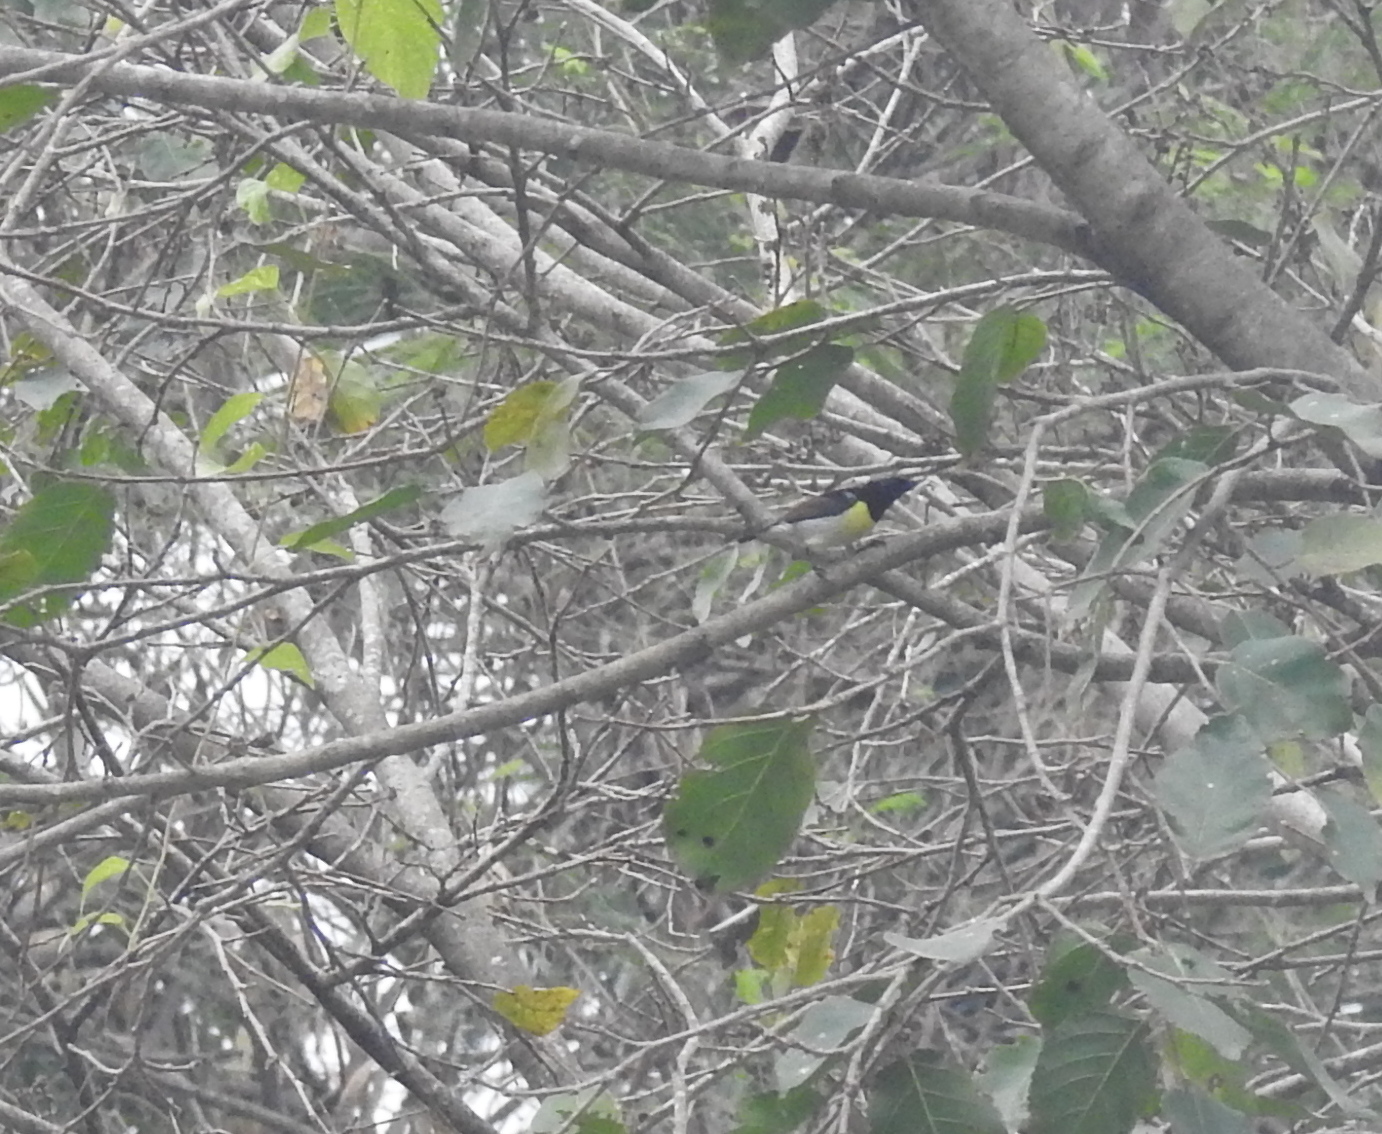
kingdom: Animalia
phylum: Chordata
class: Aves
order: Passeriformes
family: Nectariniidae
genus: Leptocoma
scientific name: Leptocoma zeylonica
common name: Purple-rumped sunbird
